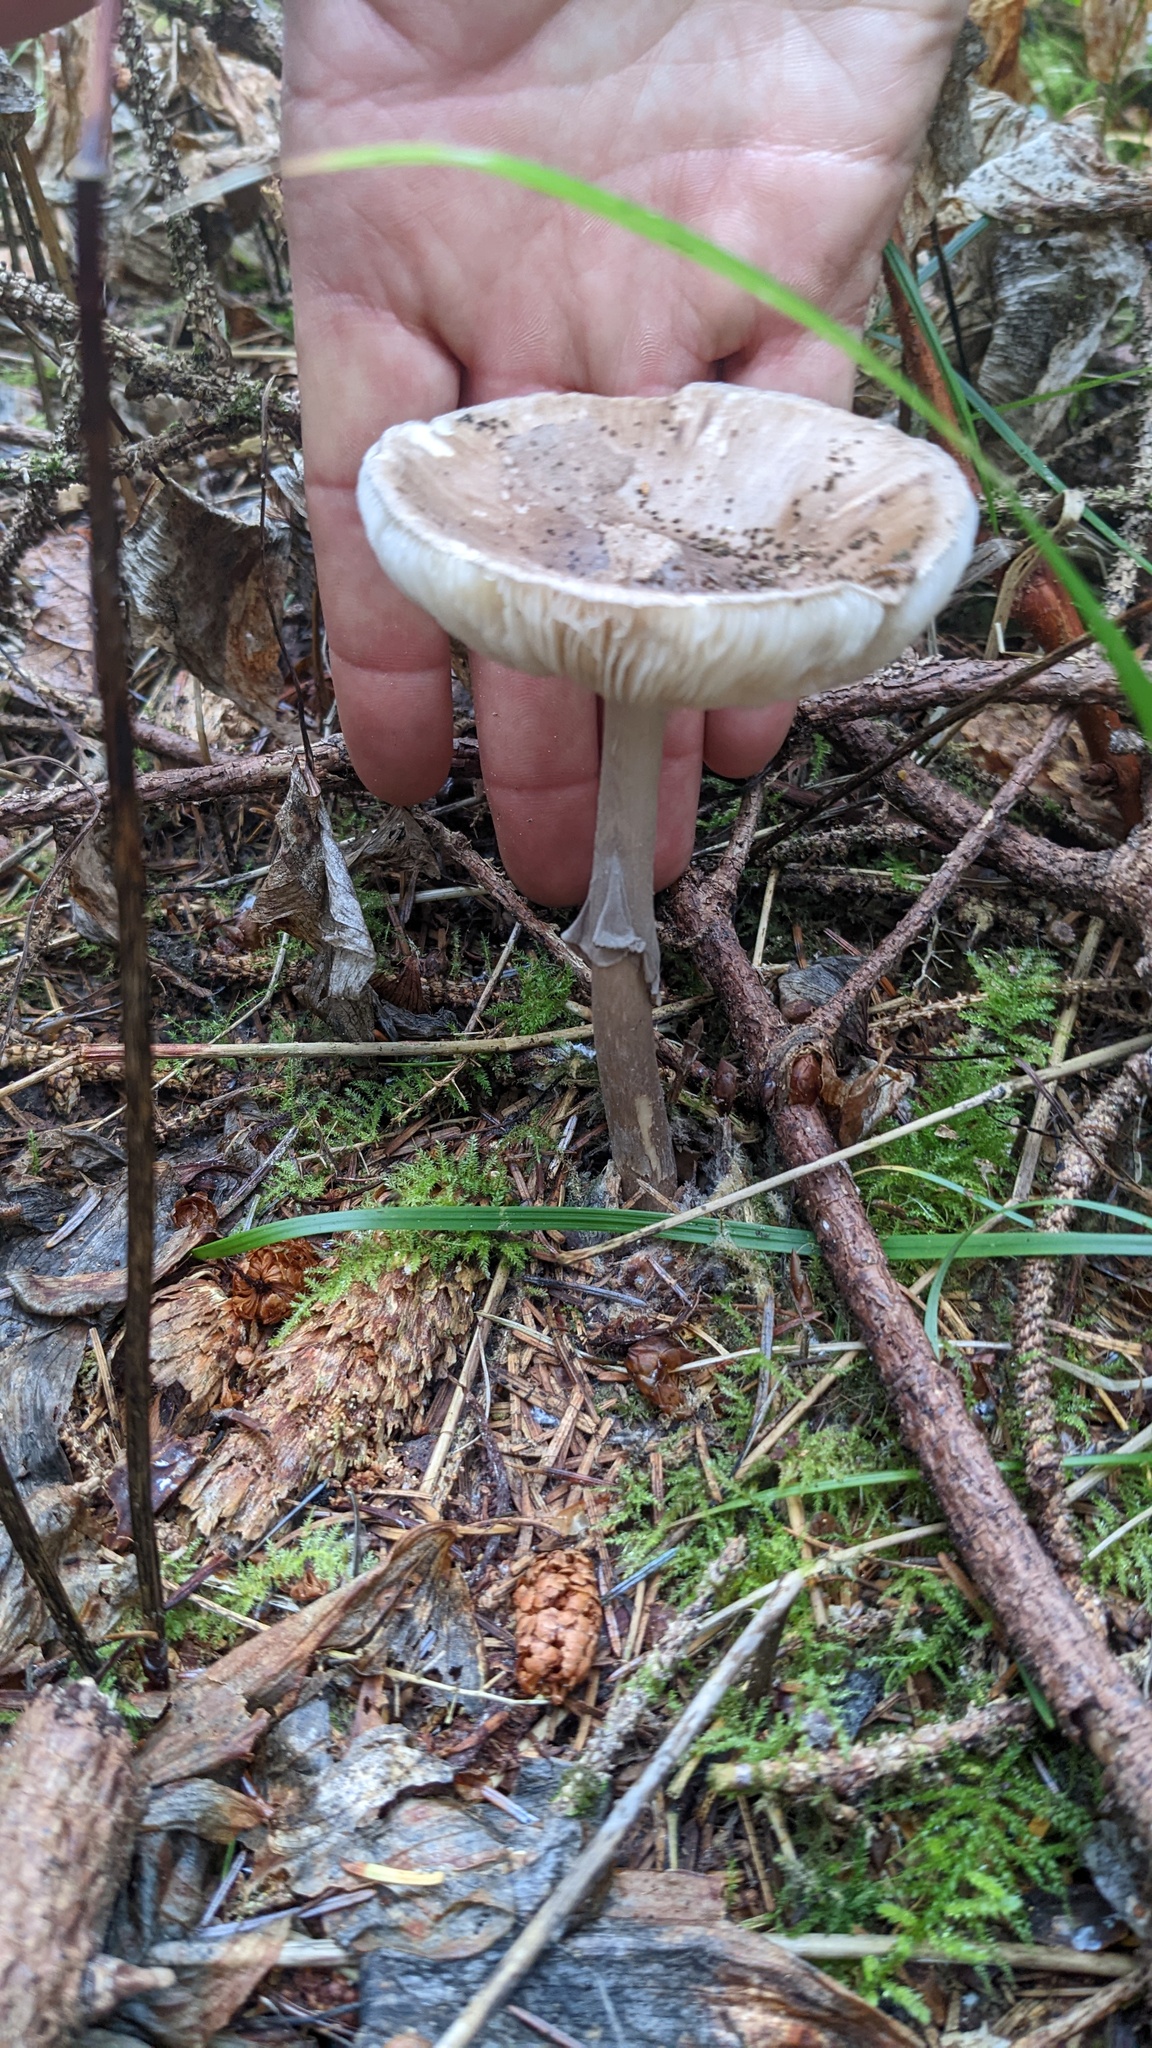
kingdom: Fungi
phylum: Basidiomycota
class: Agaricomycetes
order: Agaricales
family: Amanitaceae
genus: Amanita
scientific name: Amanita porphyria
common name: Grey veiled amanita
